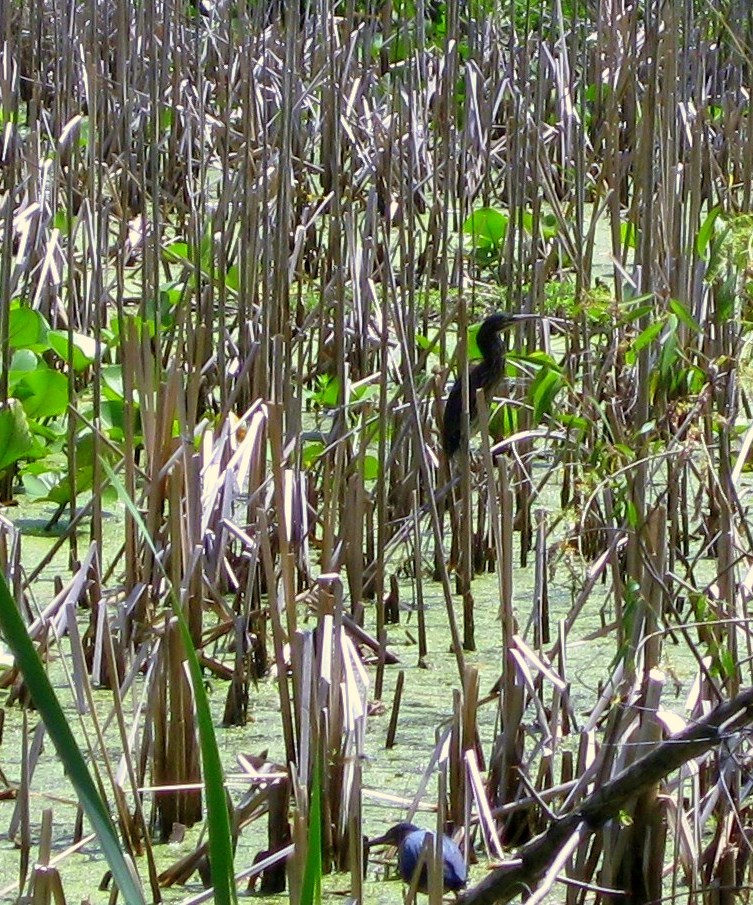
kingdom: Animalia
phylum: Chordata
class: Aves
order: Pelecaniformes
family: Ardeidae
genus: Butorides
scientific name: Butorides virescens
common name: Green heron
